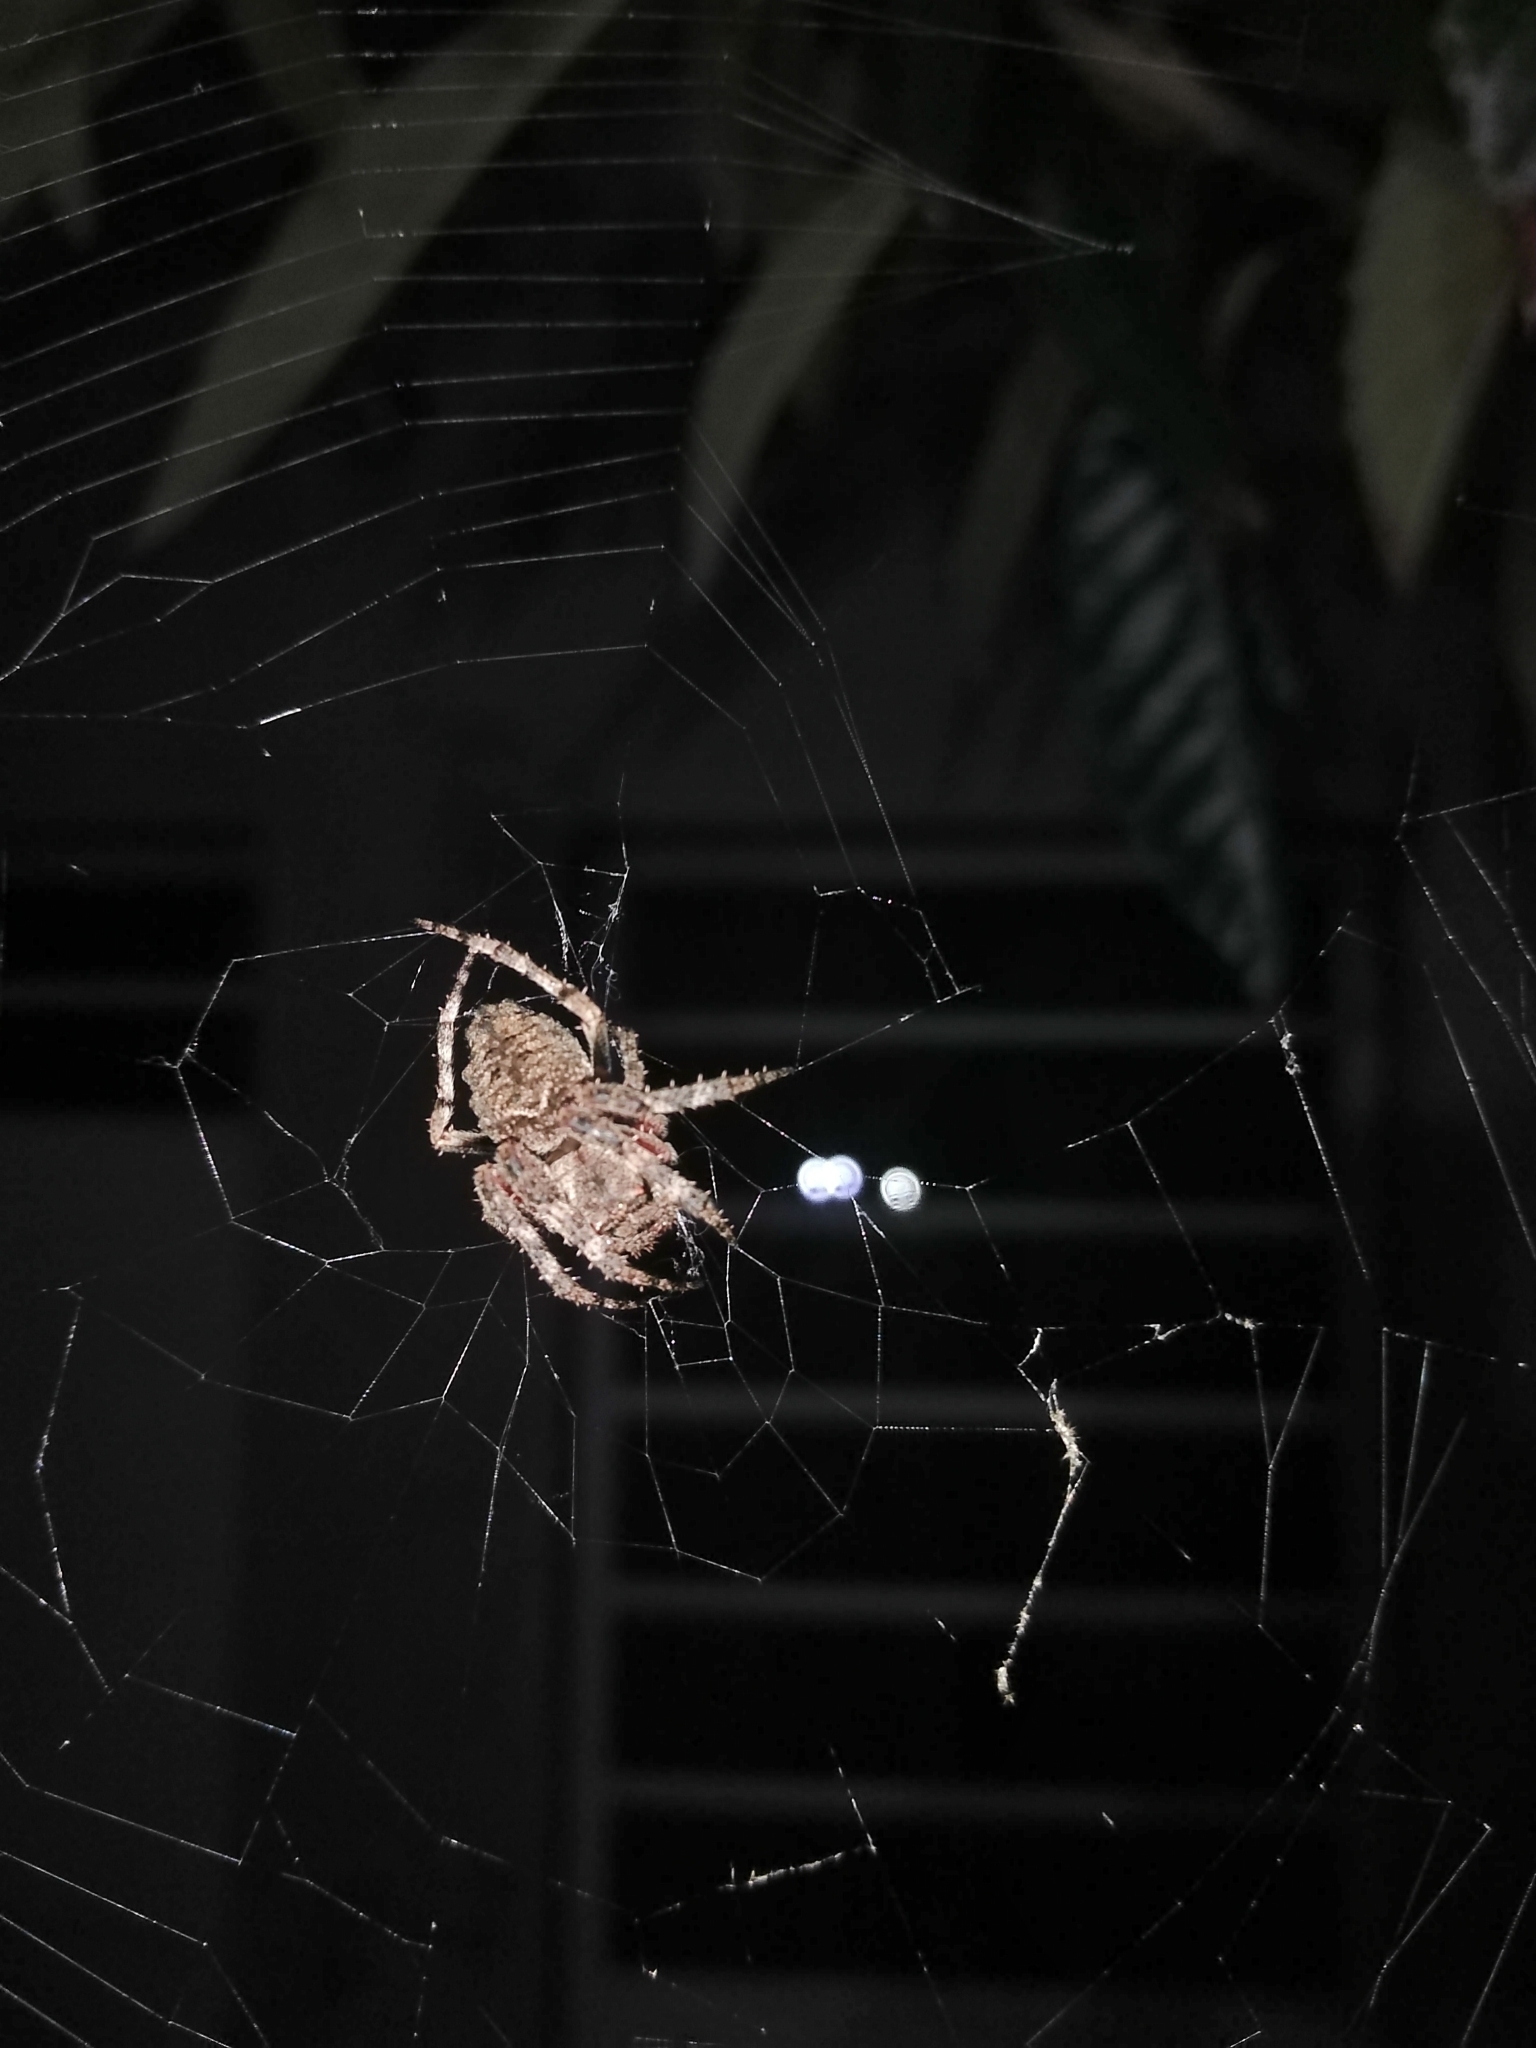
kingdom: Animalia
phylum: Arthropoda
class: Arachnida
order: Araneae
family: Araneidae
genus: Parawixia
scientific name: Parawixia audax
